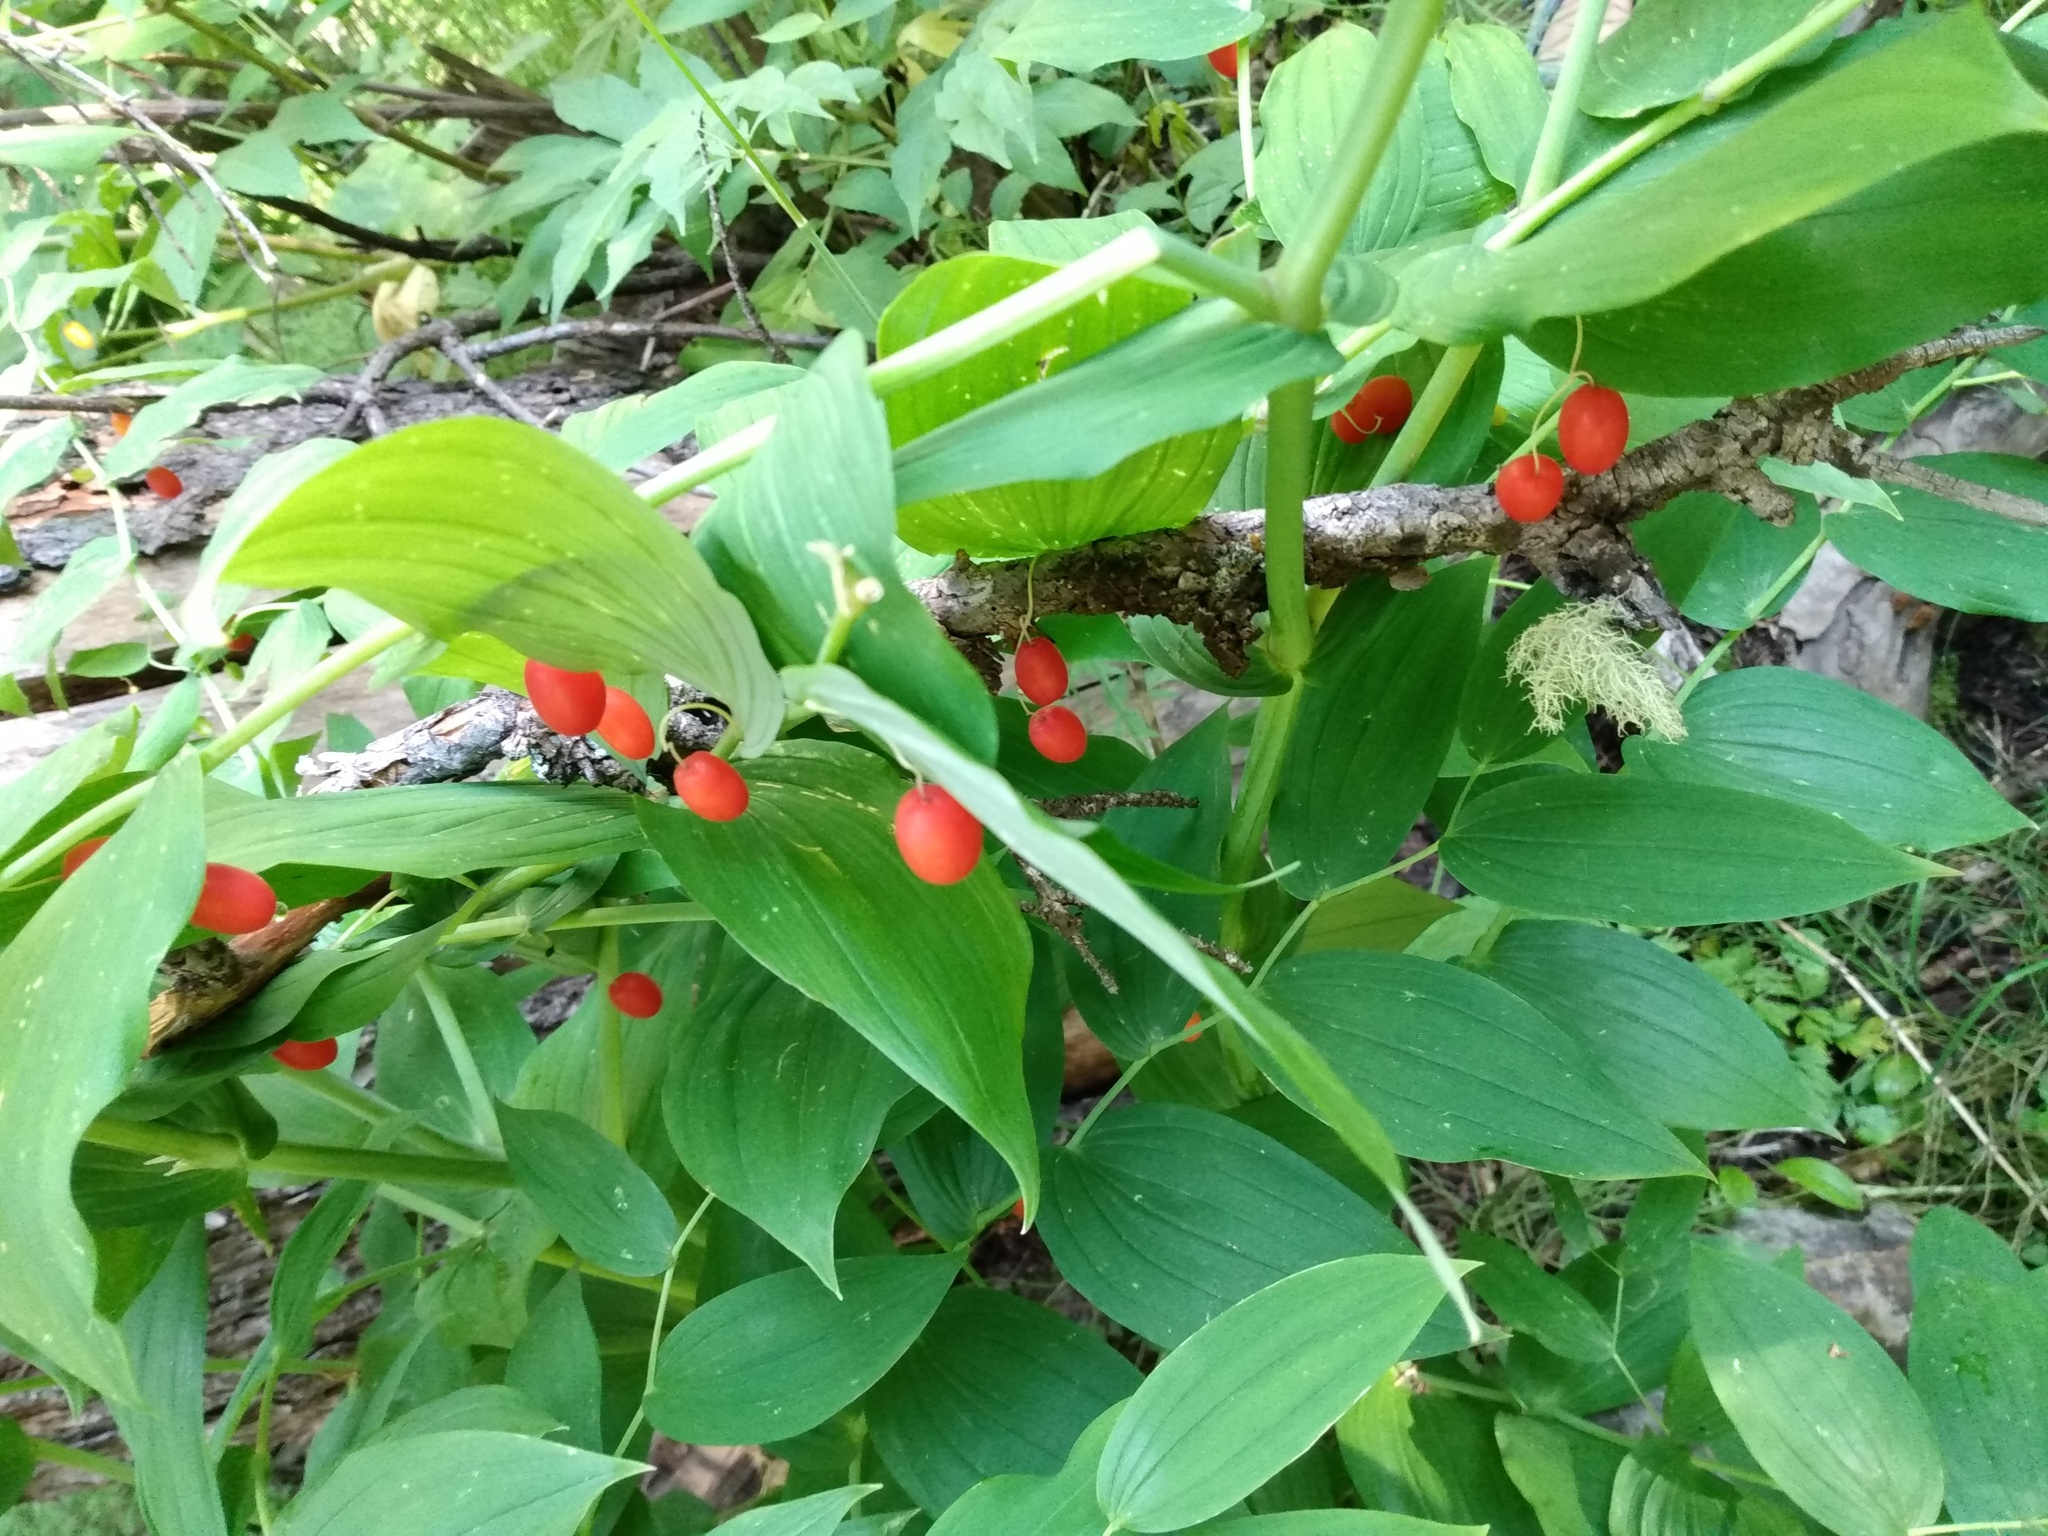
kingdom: Plantae
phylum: Tracheophyta
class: Liliopsida
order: Liliales
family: Liliaceae
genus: Streptopus
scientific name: Streptopus amplexifolius
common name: Clasp twisted stalk
